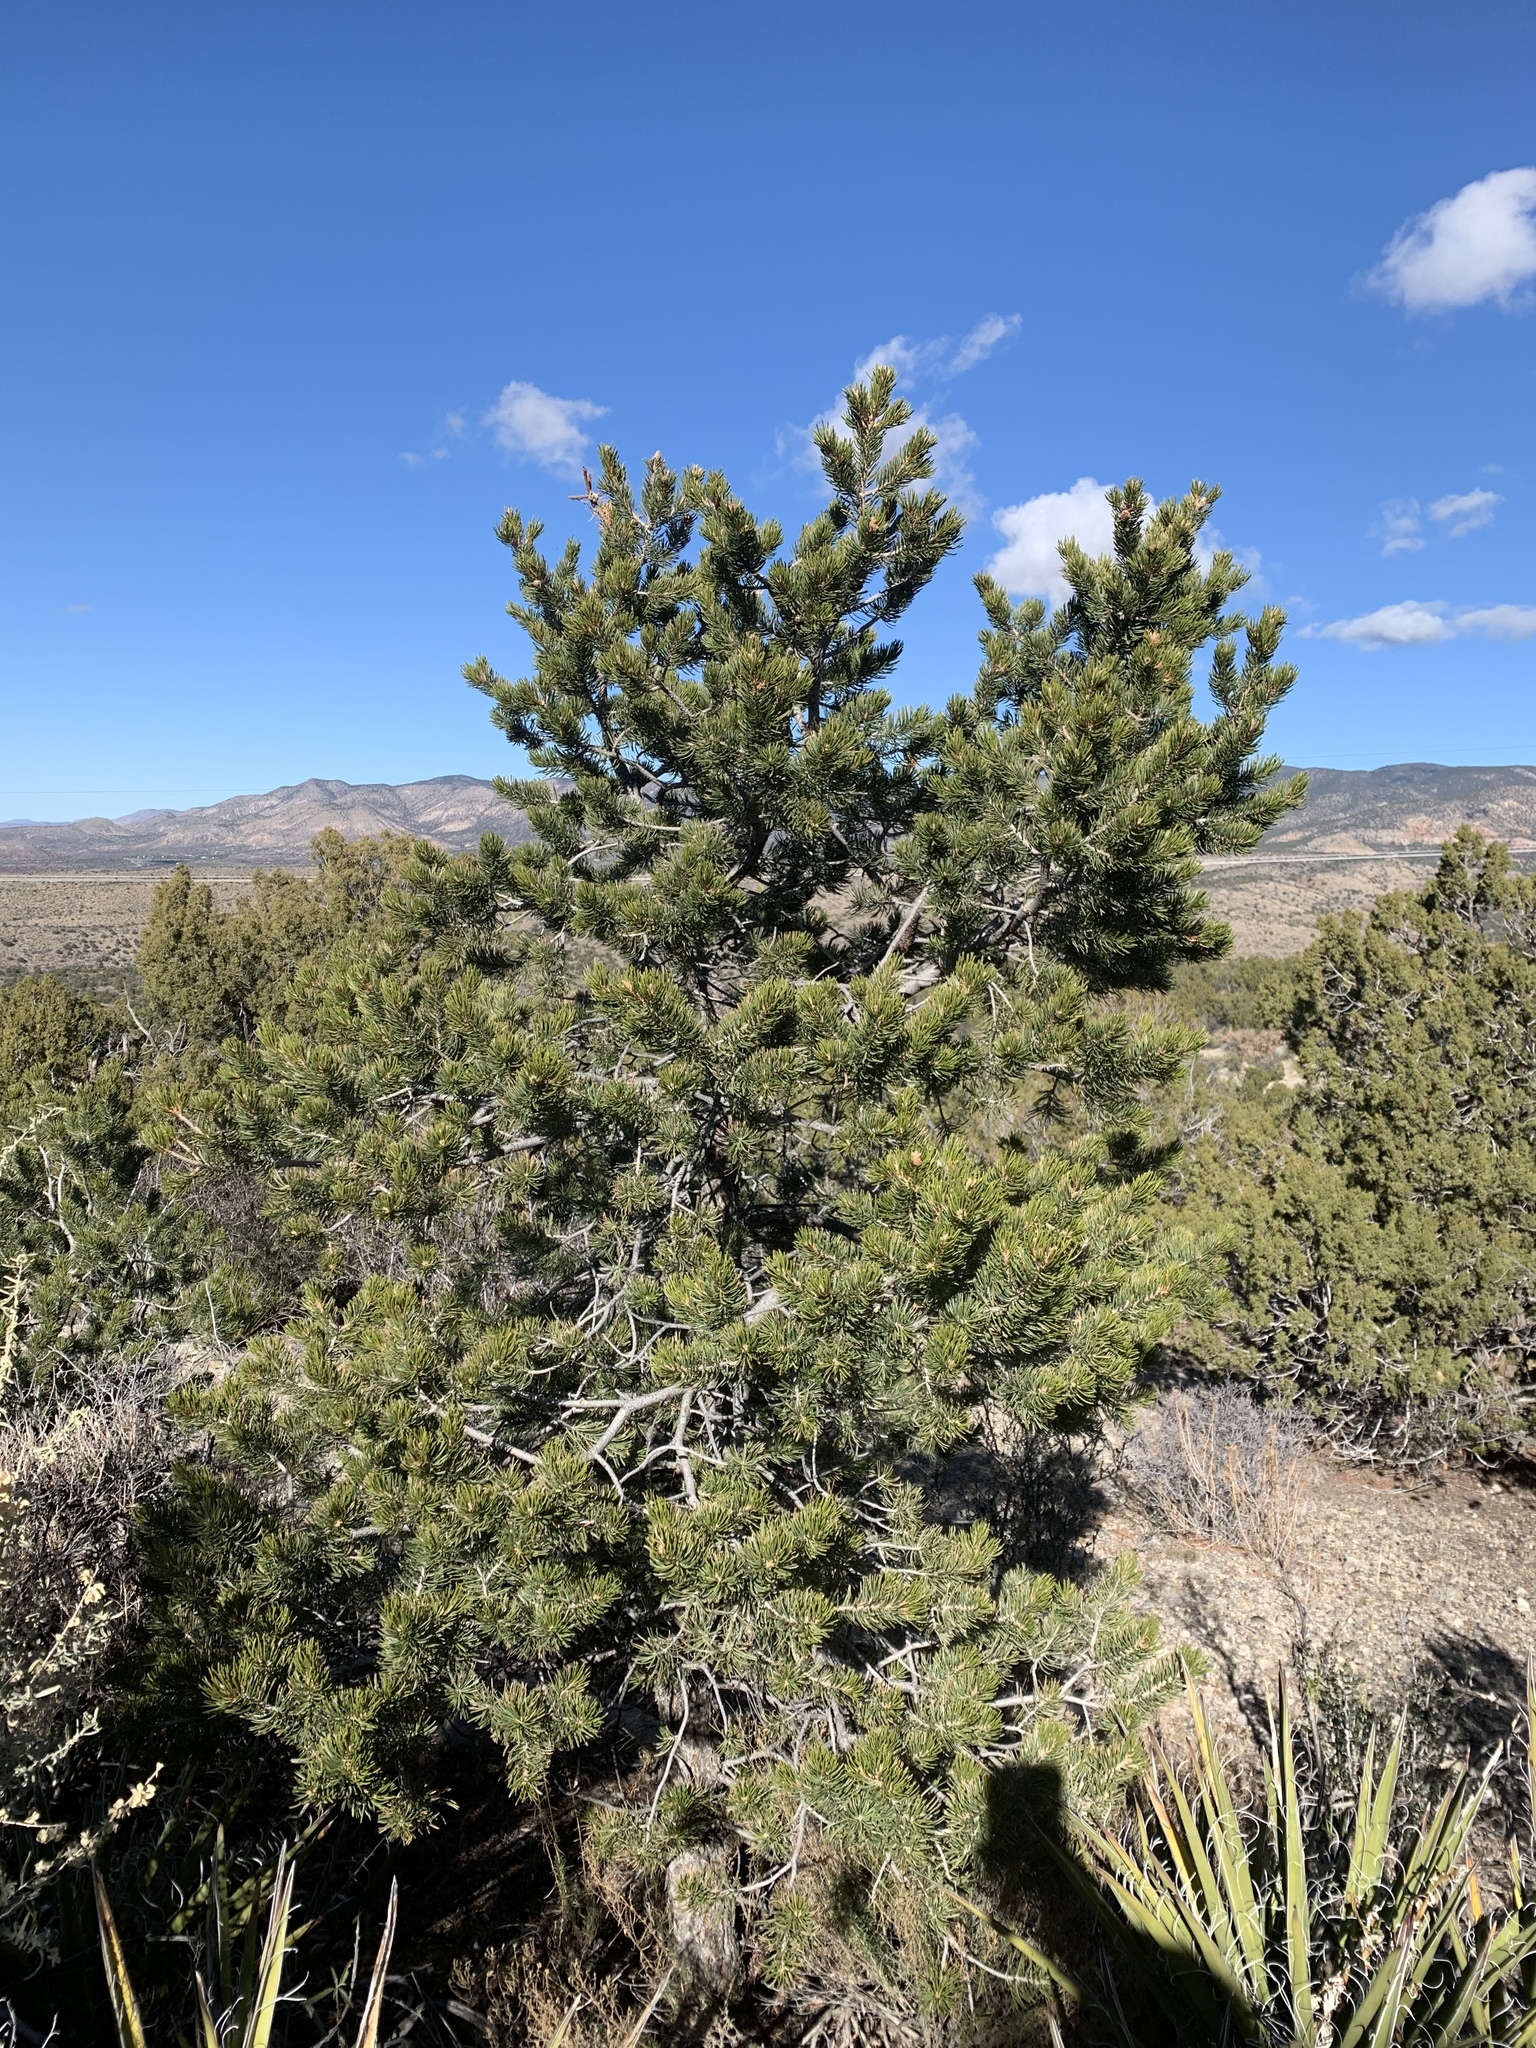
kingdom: Plantae
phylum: Tracheophyta
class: Pinopsida
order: Pinales
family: Pinaceae
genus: Pinus
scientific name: Pinus edulis
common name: Colorado pinyon
